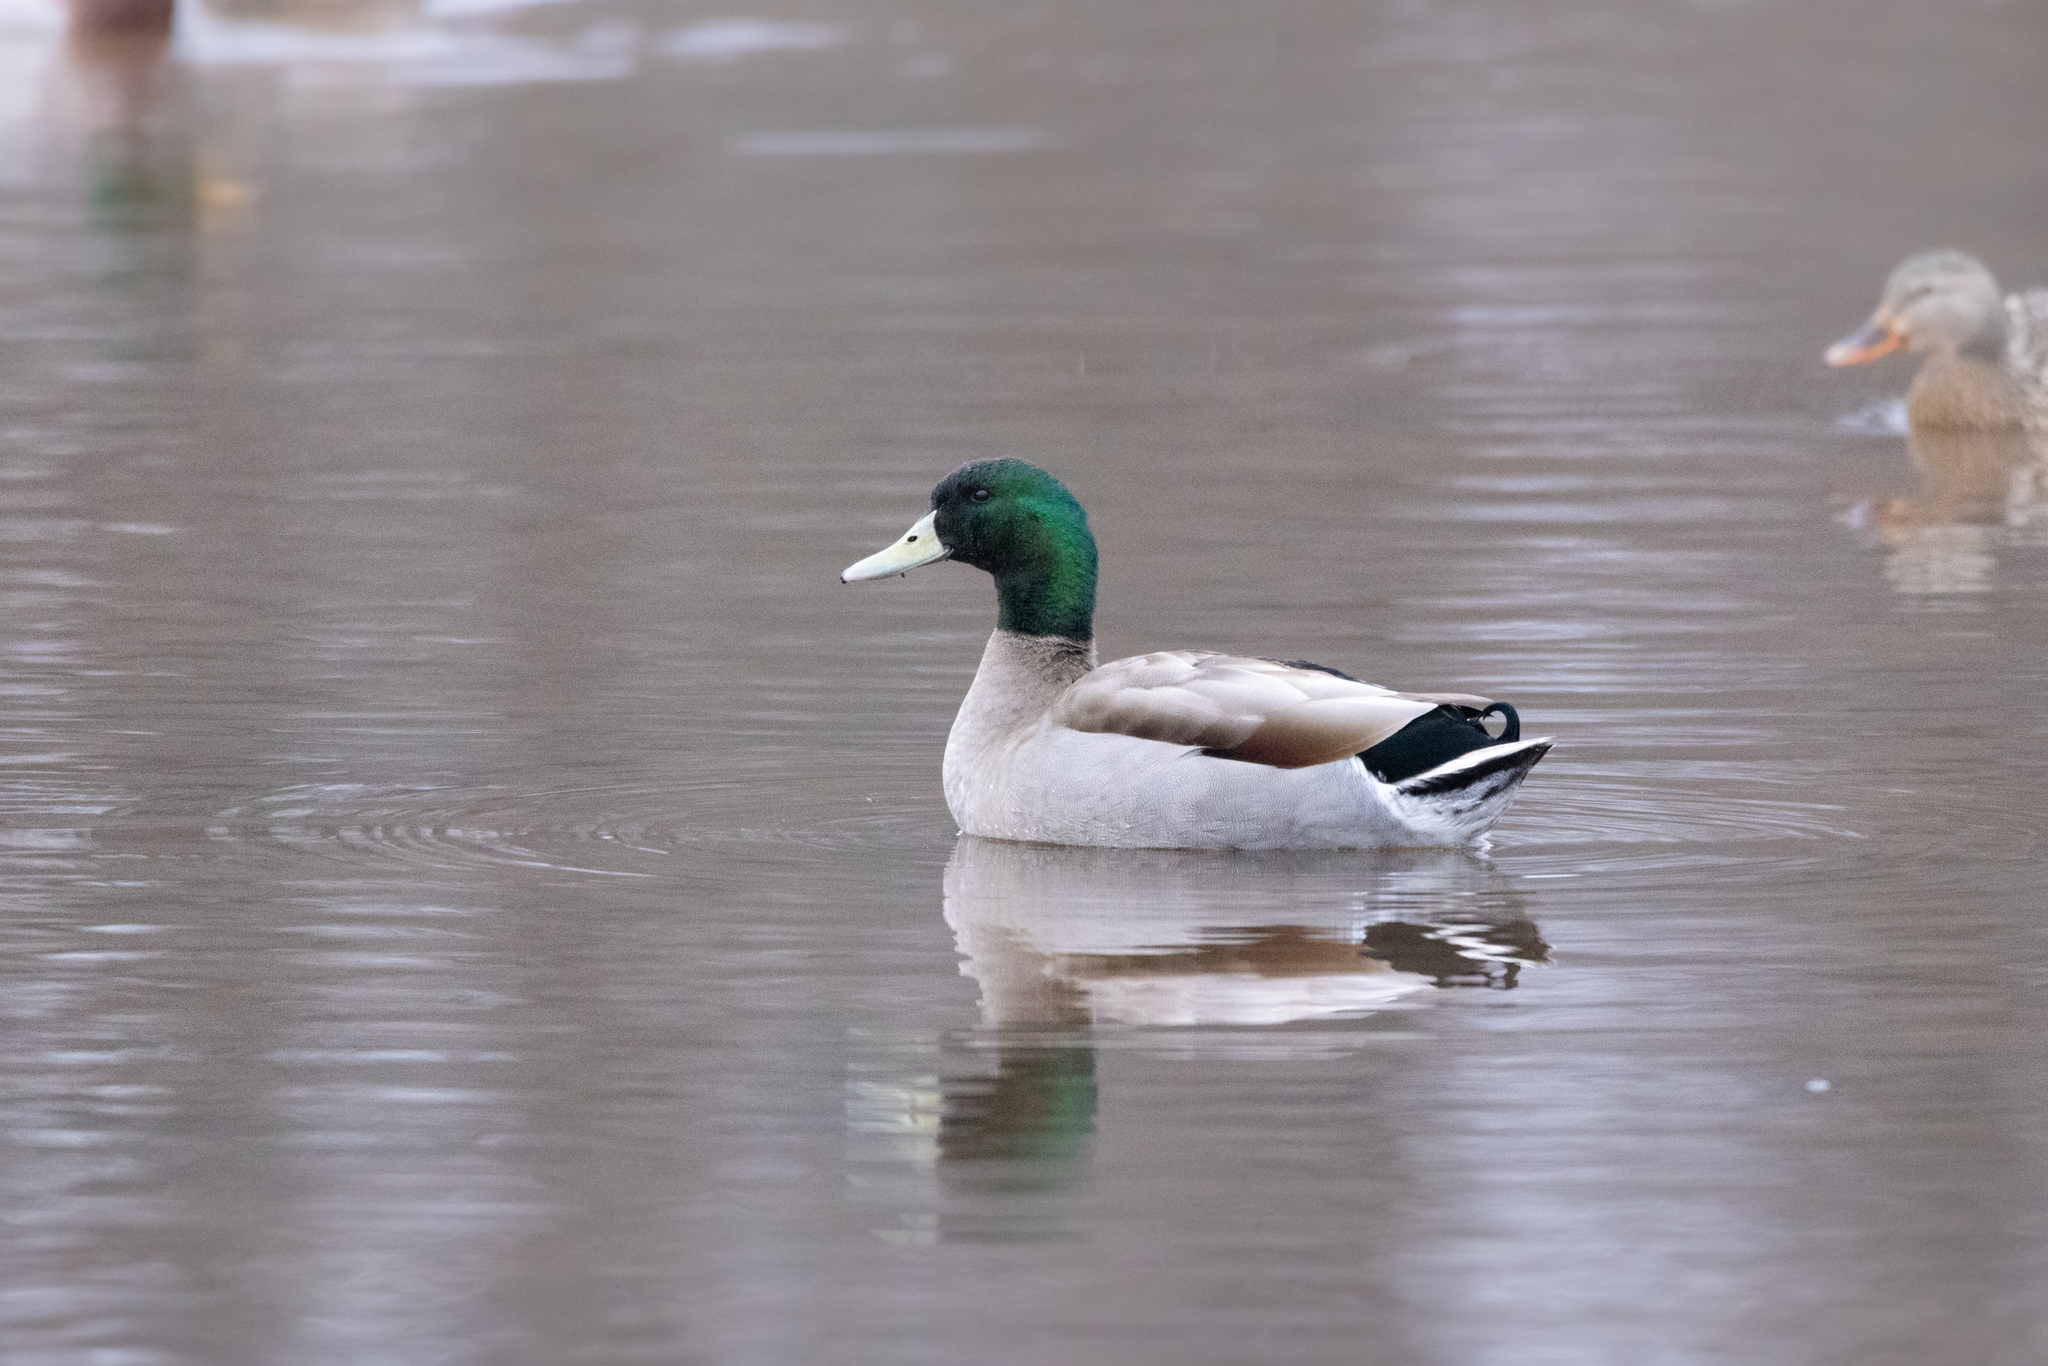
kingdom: Animalia
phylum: Chordata
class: Aves
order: Anseriformes
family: Anatidae
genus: Anas
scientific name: Anas platyrhynchos
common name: Mallard
